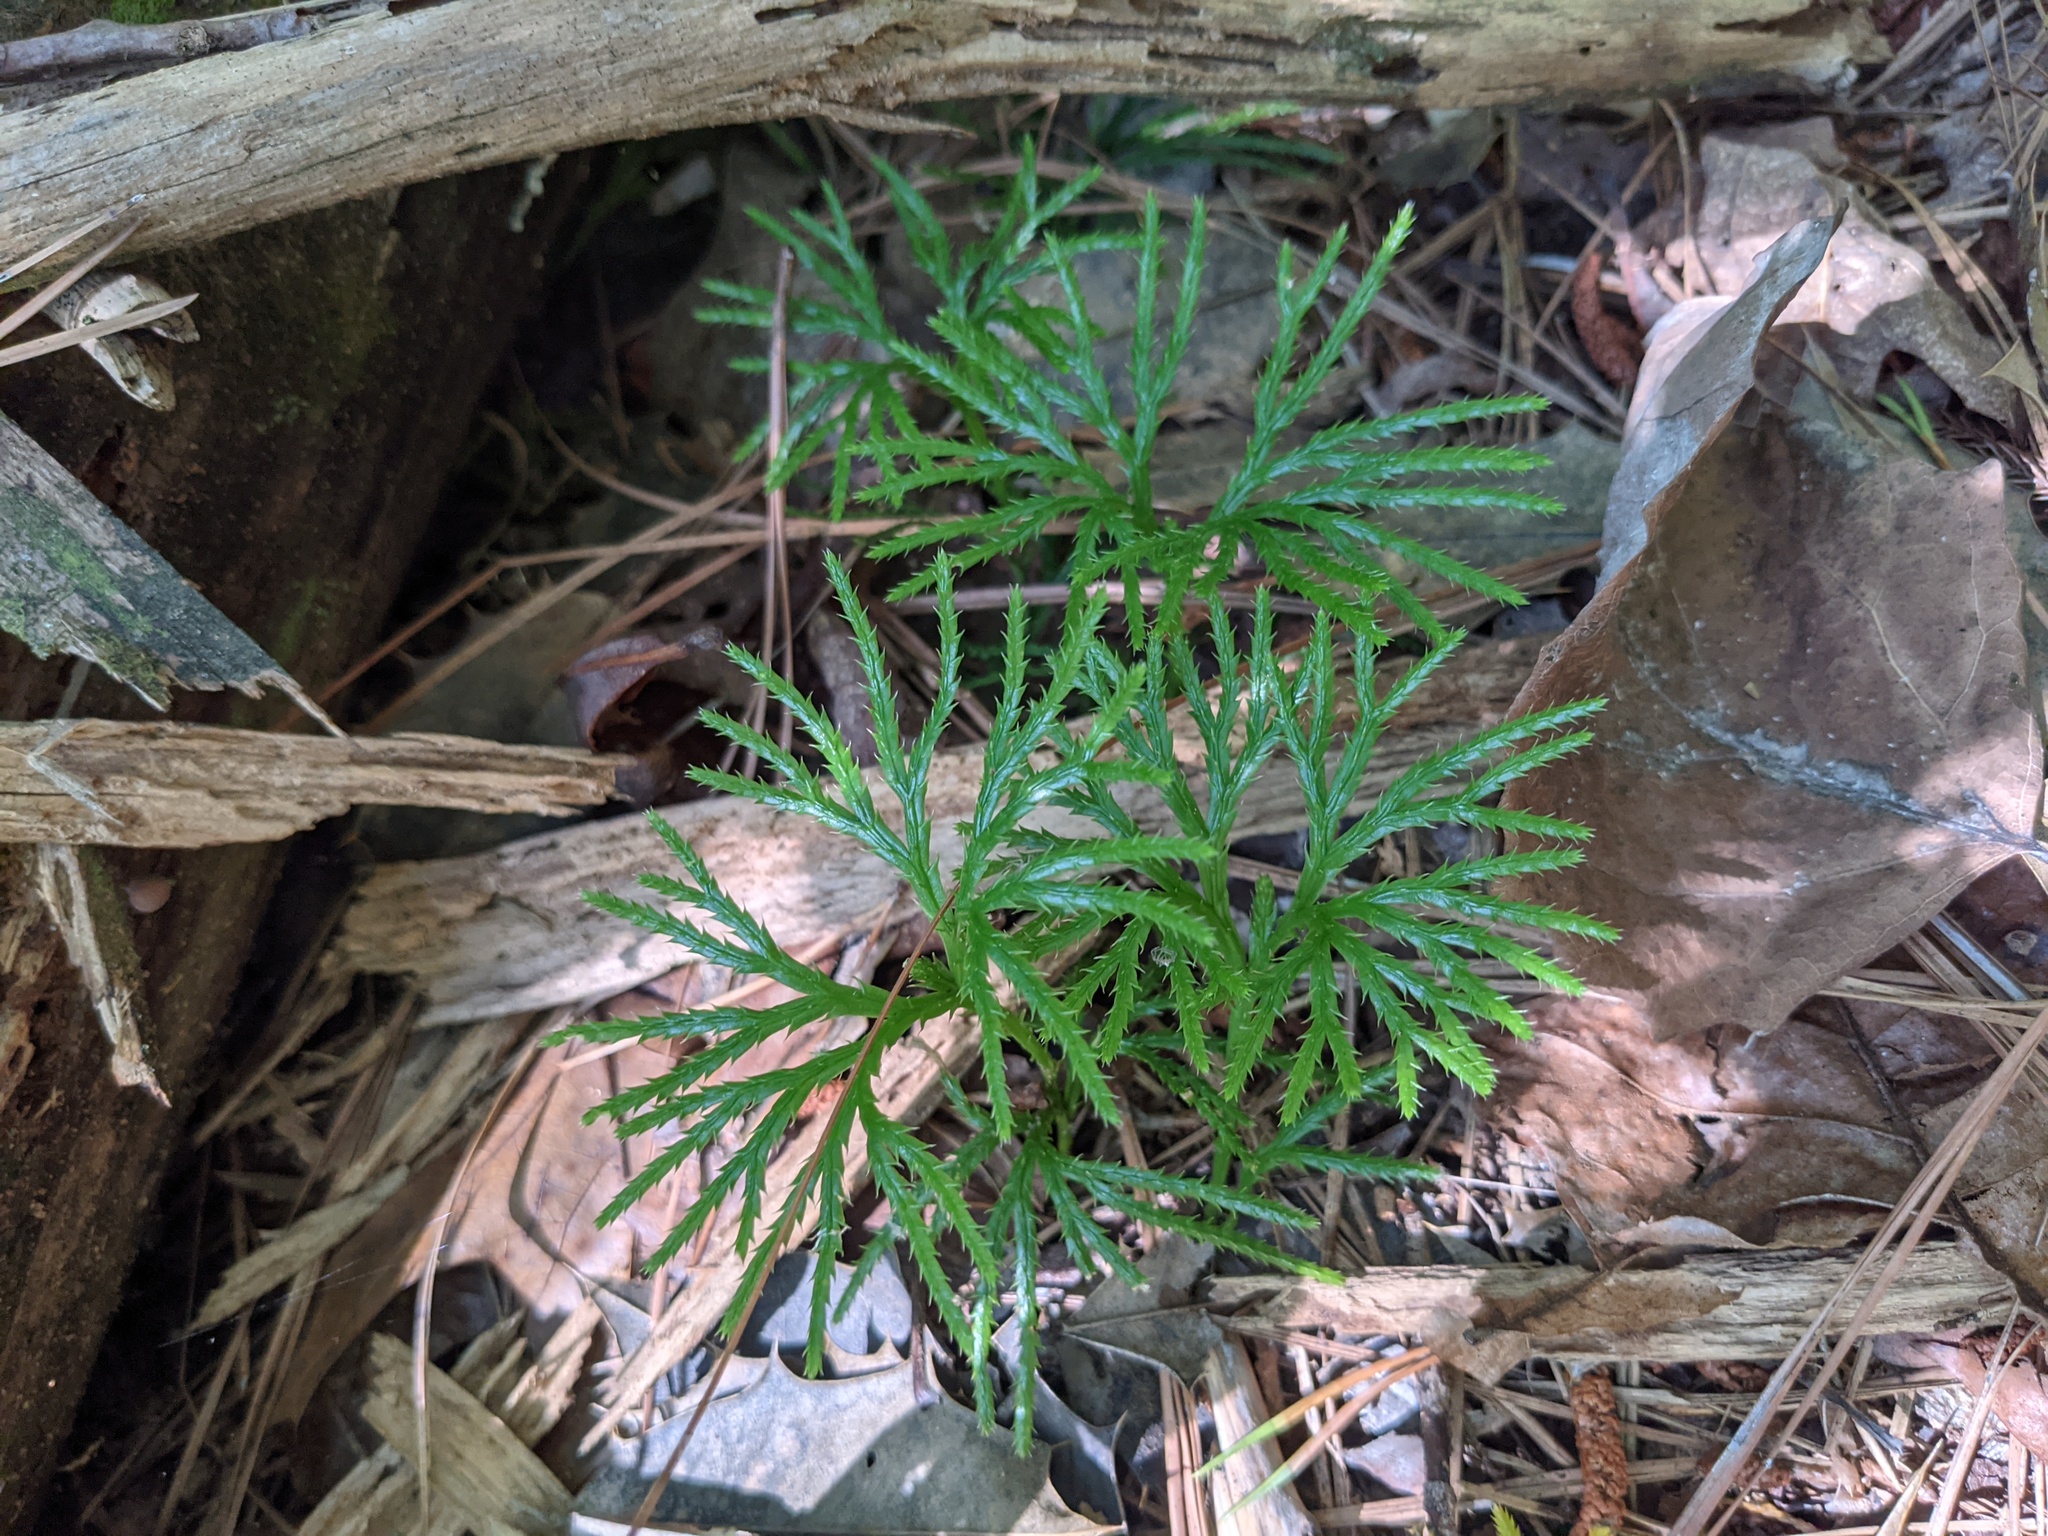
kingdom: Plantae
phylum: Tracheophyta
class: Lycopodiopsida
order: Lycopodiales
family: Lycopodiaceae
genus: Diphasiastrum
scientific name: Diphasiastrum digitatum
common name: Southern running-pine
